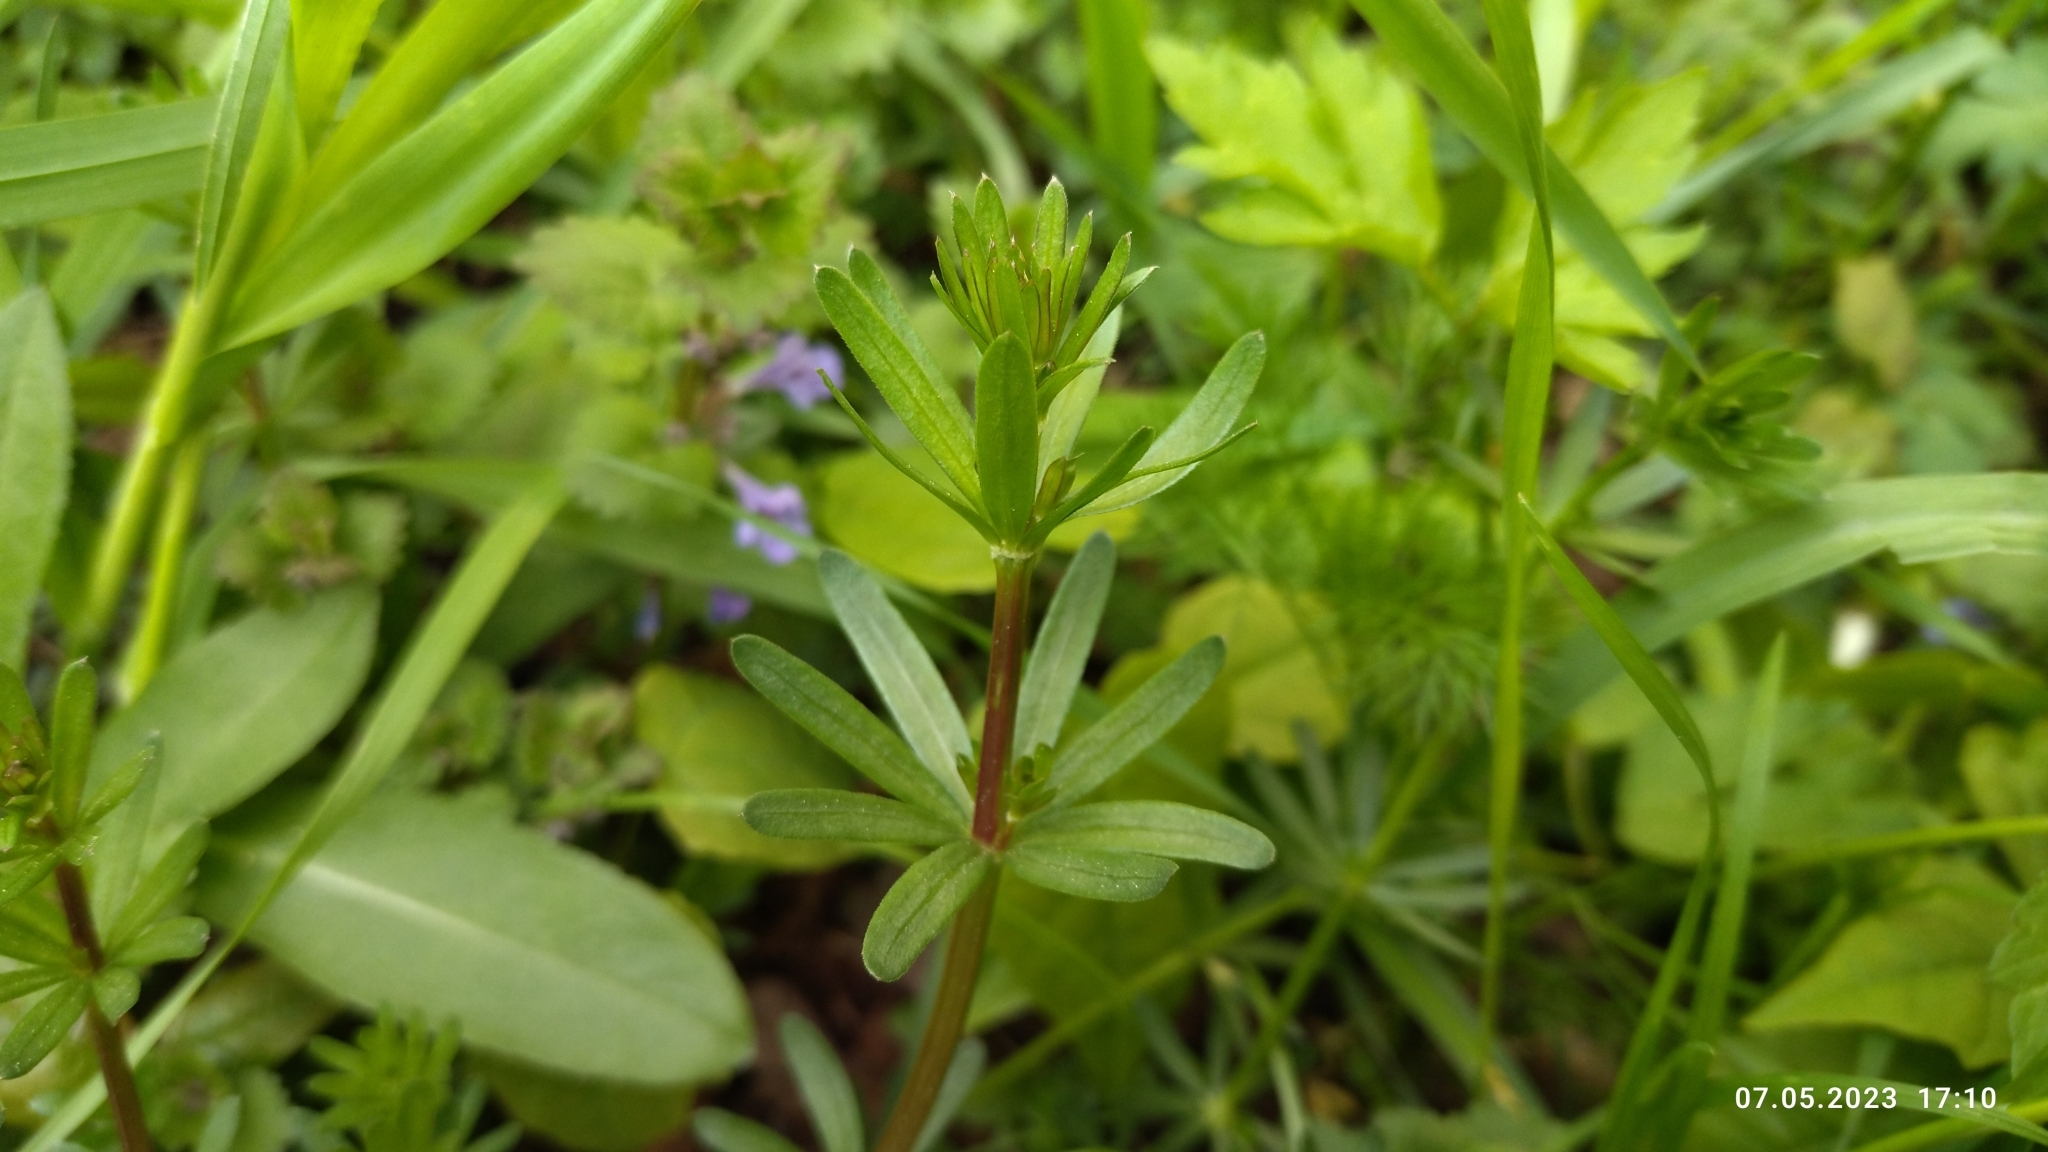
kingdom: Plantae
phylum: Tracheophyta
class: Magnoliopsida
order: Gentianales
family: Rubiaceae
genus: Galium
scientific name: Galium mollugo
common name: Hedge bedstraw
